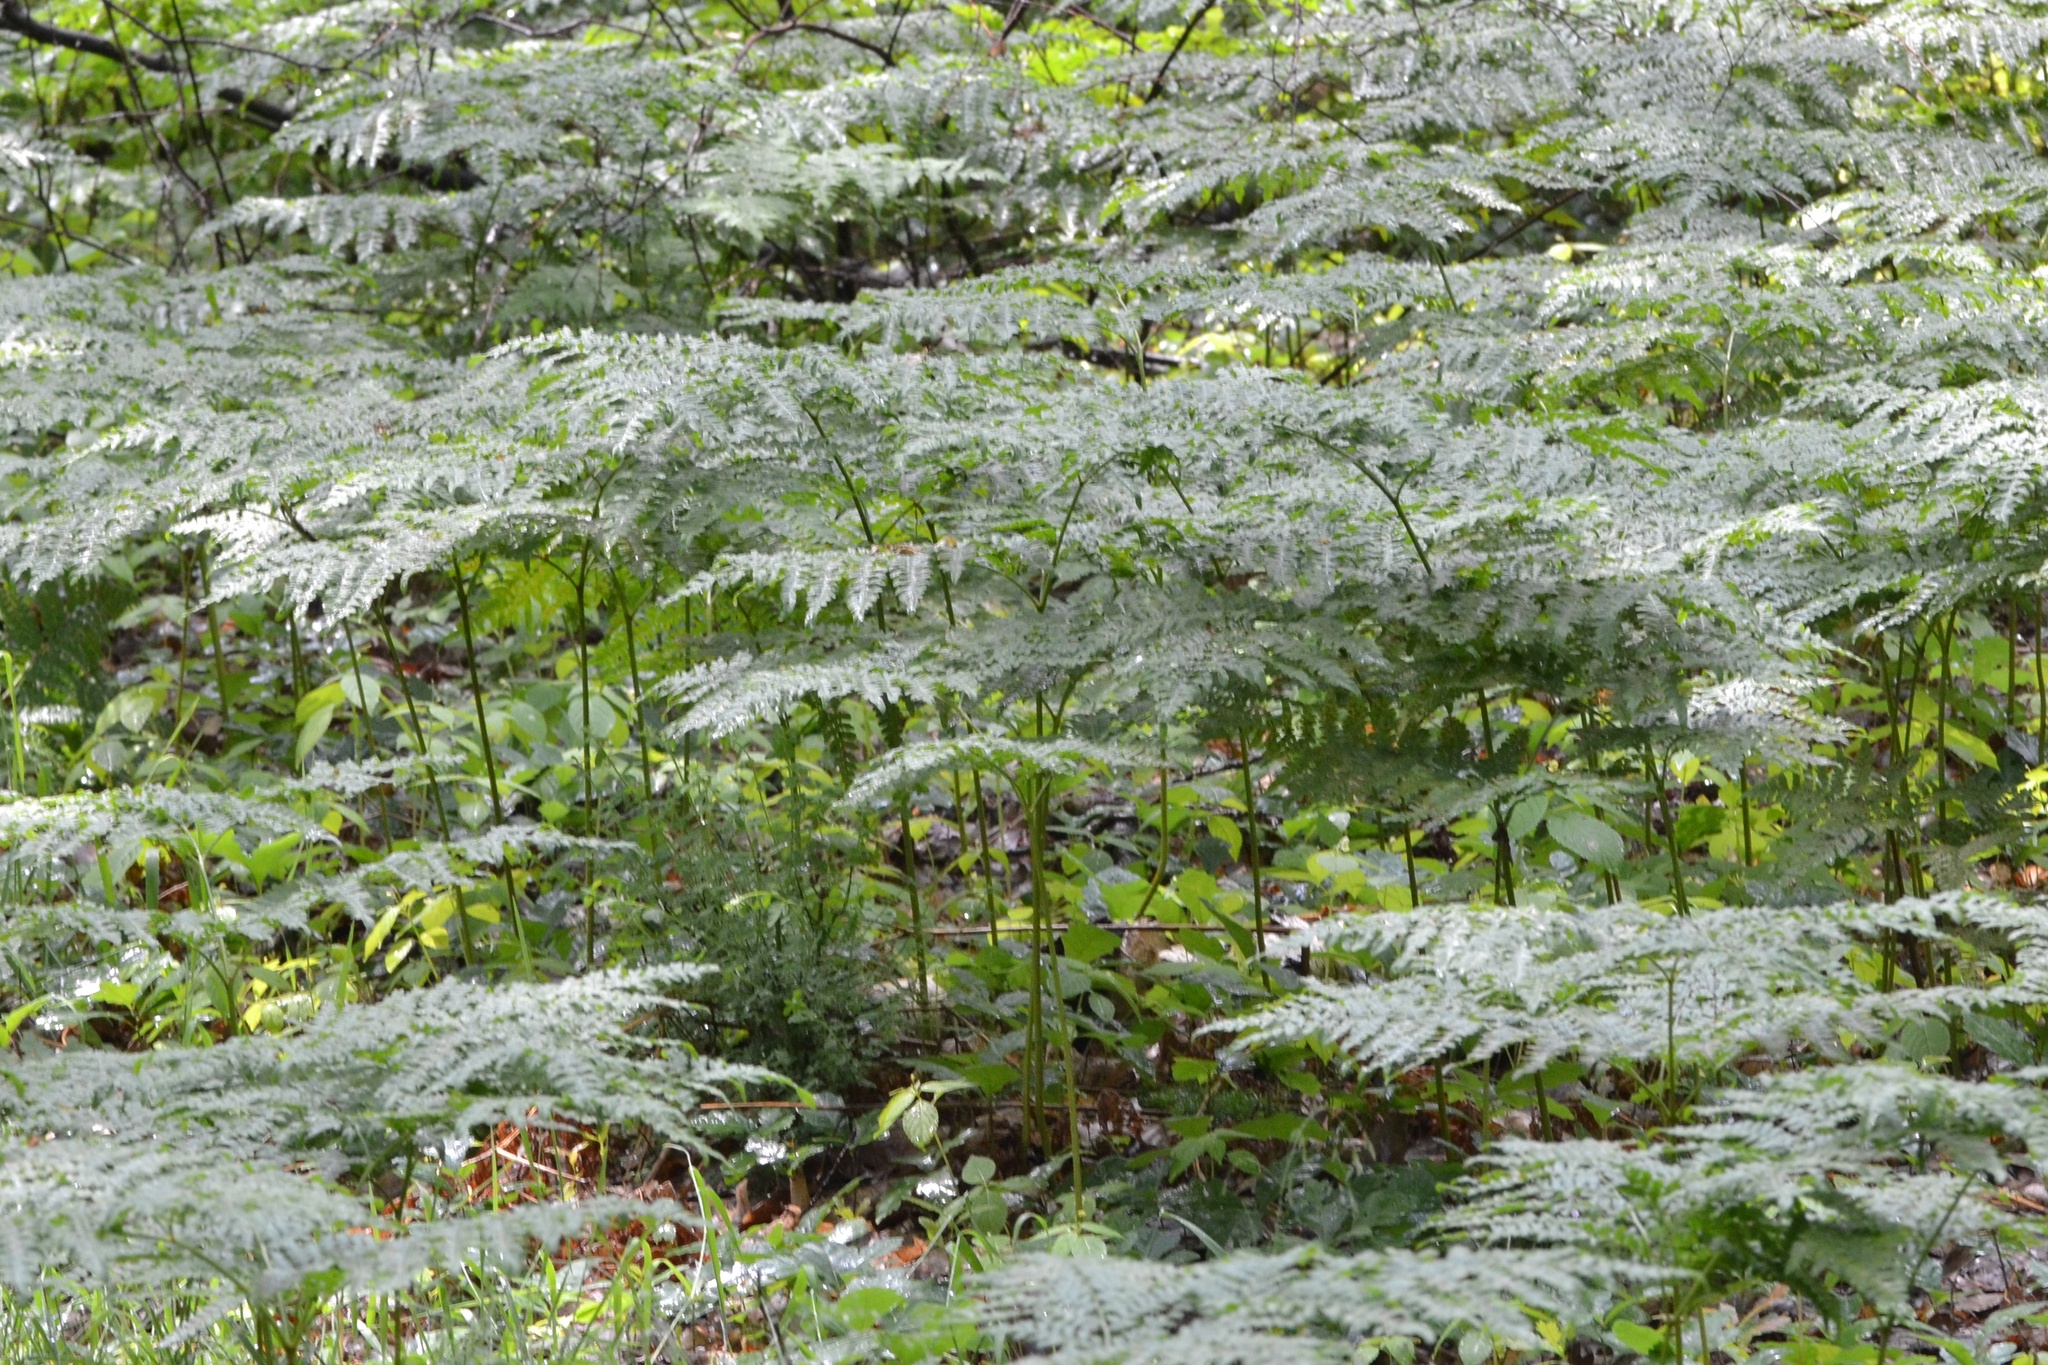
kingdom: Plantae
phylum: Tracheophyta
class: Polypodiopsida
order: Polypodiales
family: Dennstaedtiaceae
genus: Pteridium
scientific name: Pteridium aquilinum
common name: Bracken
